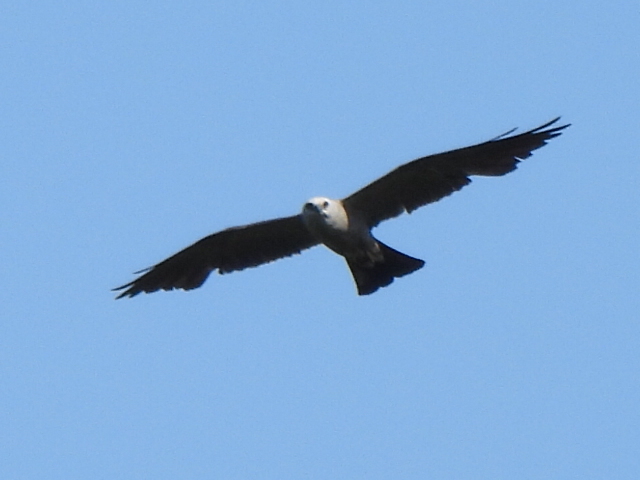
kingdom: Animalia
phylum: Chordata
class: Aves
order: Accipitriformes
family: Accipitridae
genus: Ictinia
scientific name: Ictinia mississippiensis
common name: Mississippi kite
